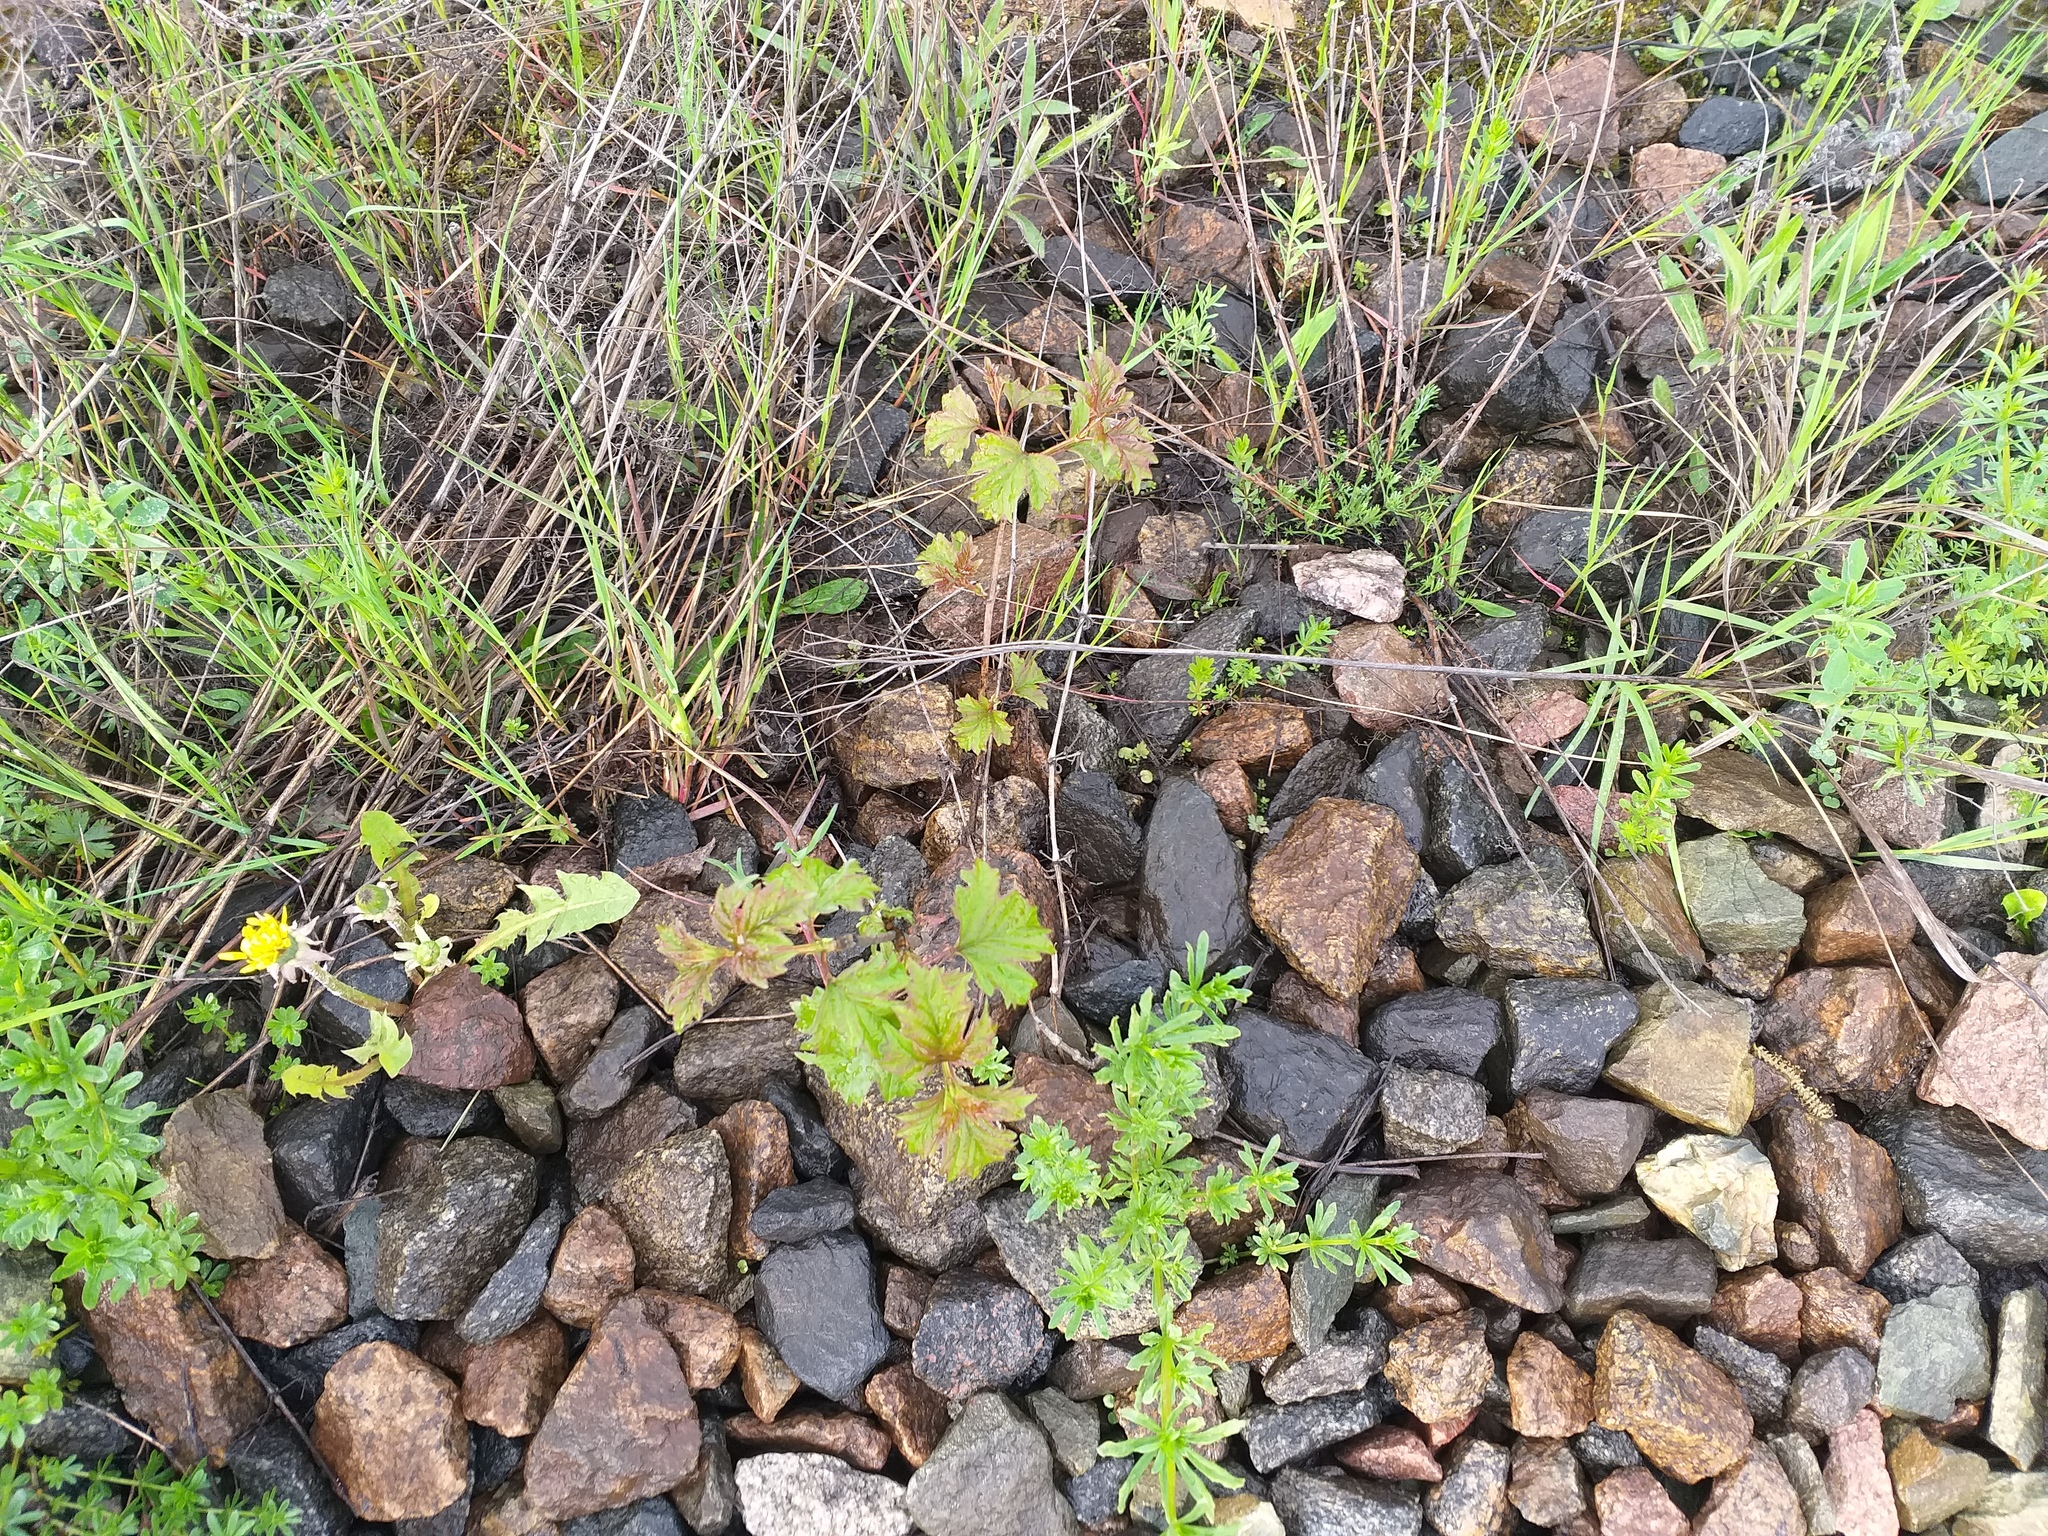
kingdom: Plantae
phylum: Tracheophyta
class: Magnoliopsida
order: Dipsacales
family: Viburnaceae
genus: Viburnum
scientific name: Viburnum opulus
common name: Guelder-rose
